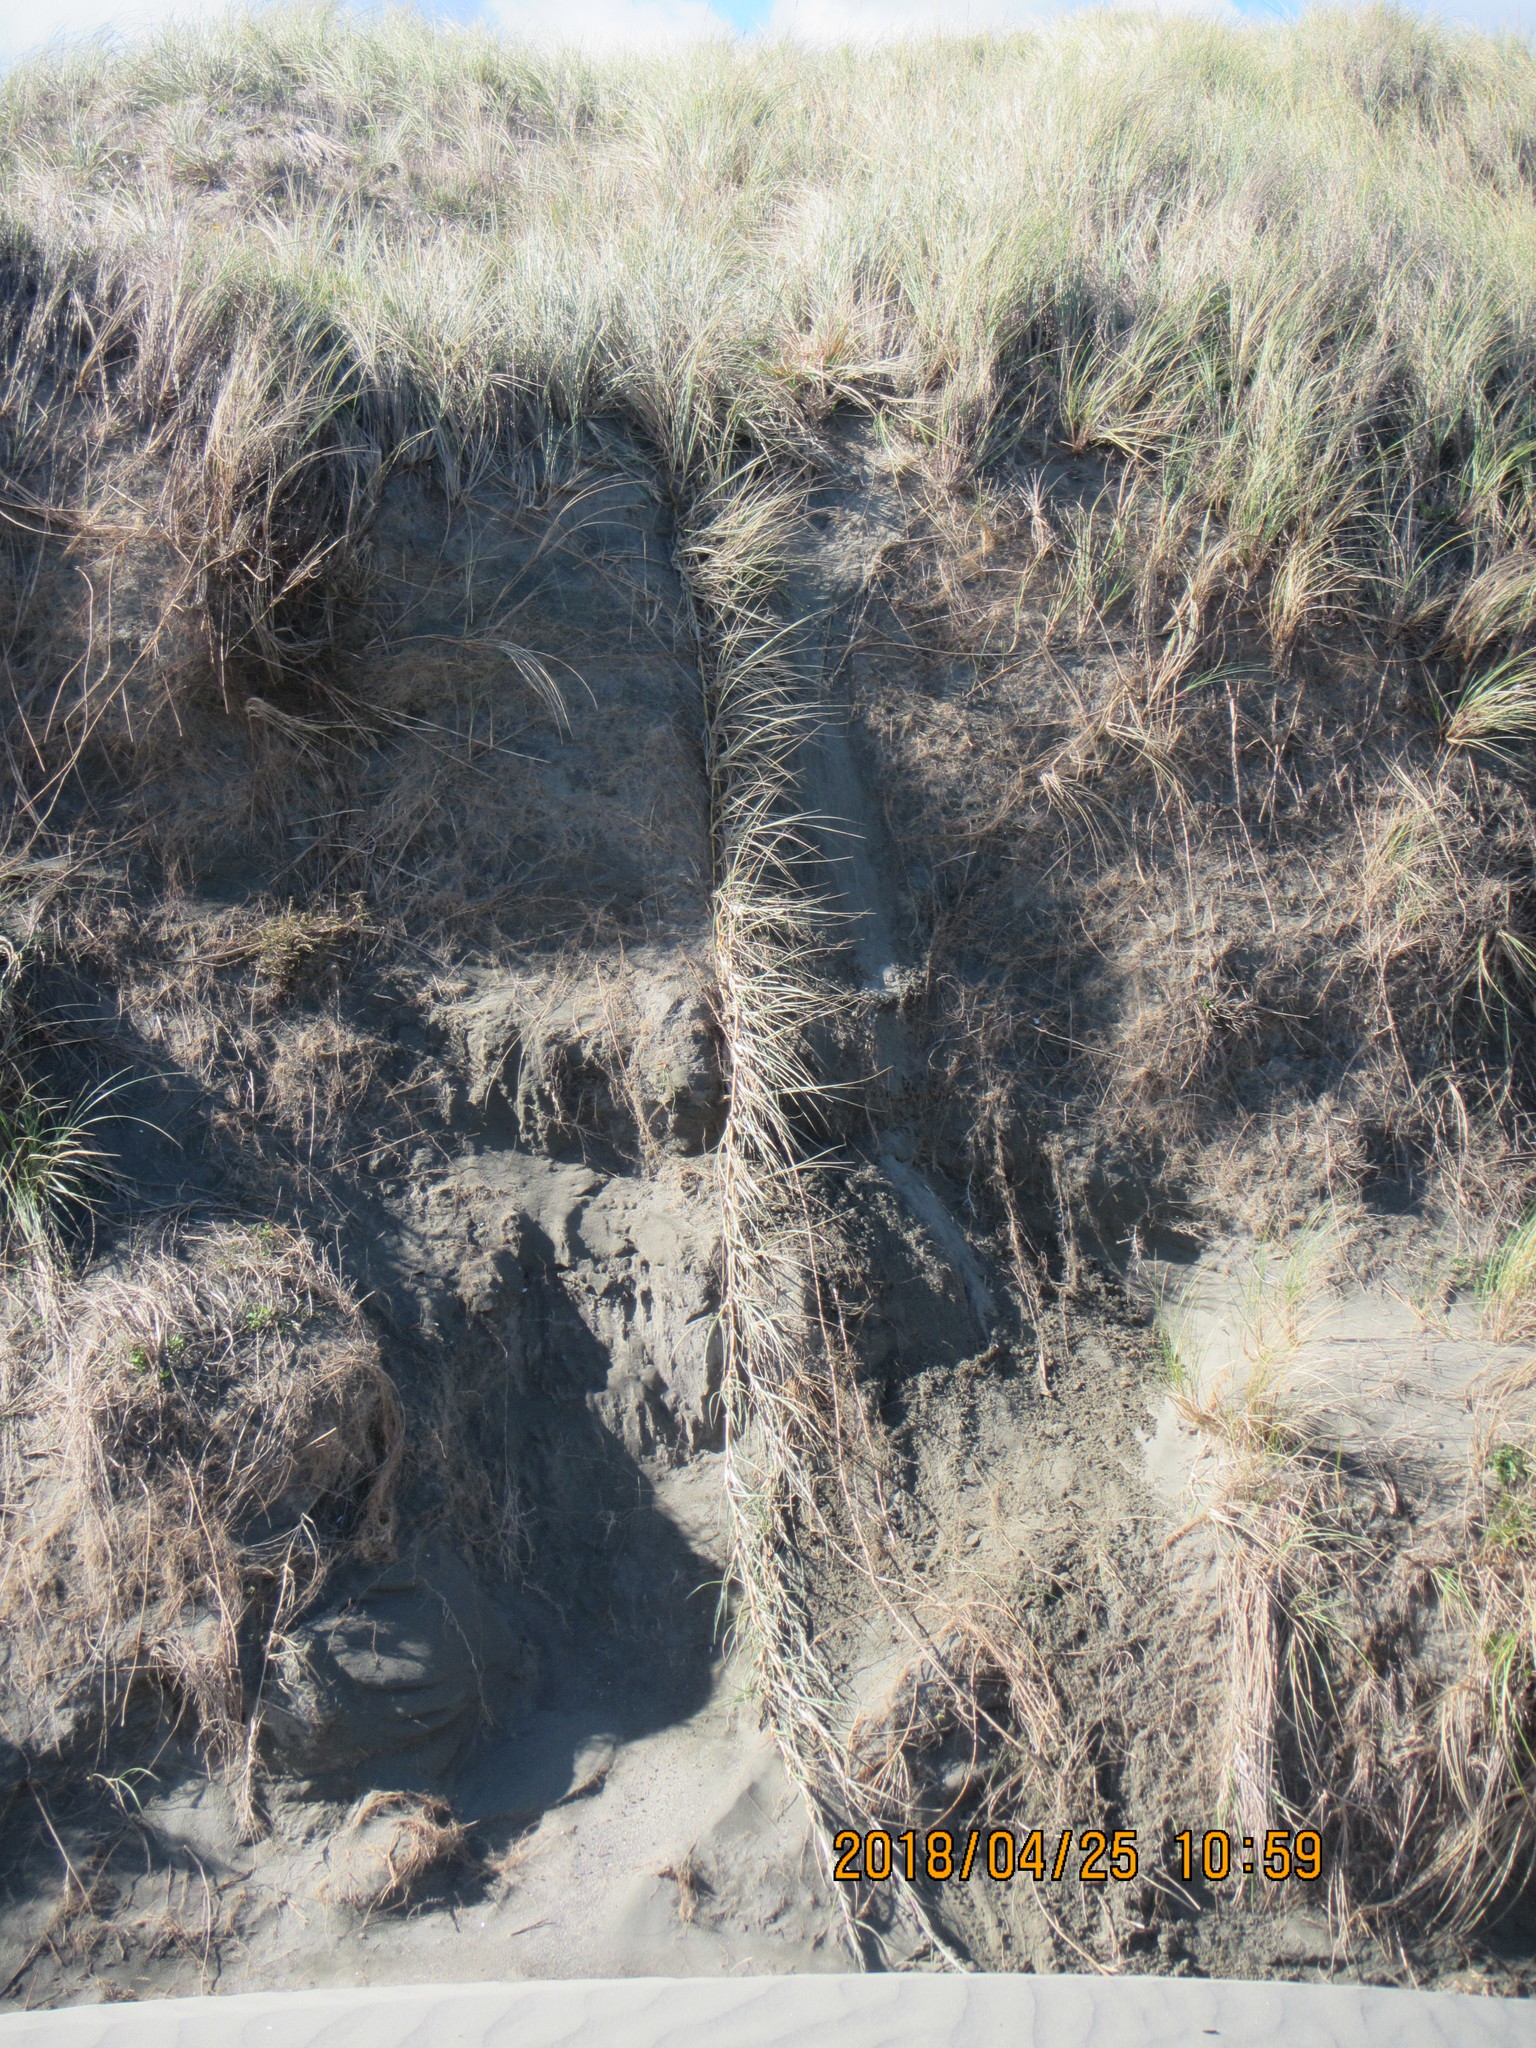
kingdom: Plantae
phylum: Tracheophyta
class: Liliopsida
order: Poales
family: Poaceae
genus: Spinifex
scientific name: Spinifex sericeus
